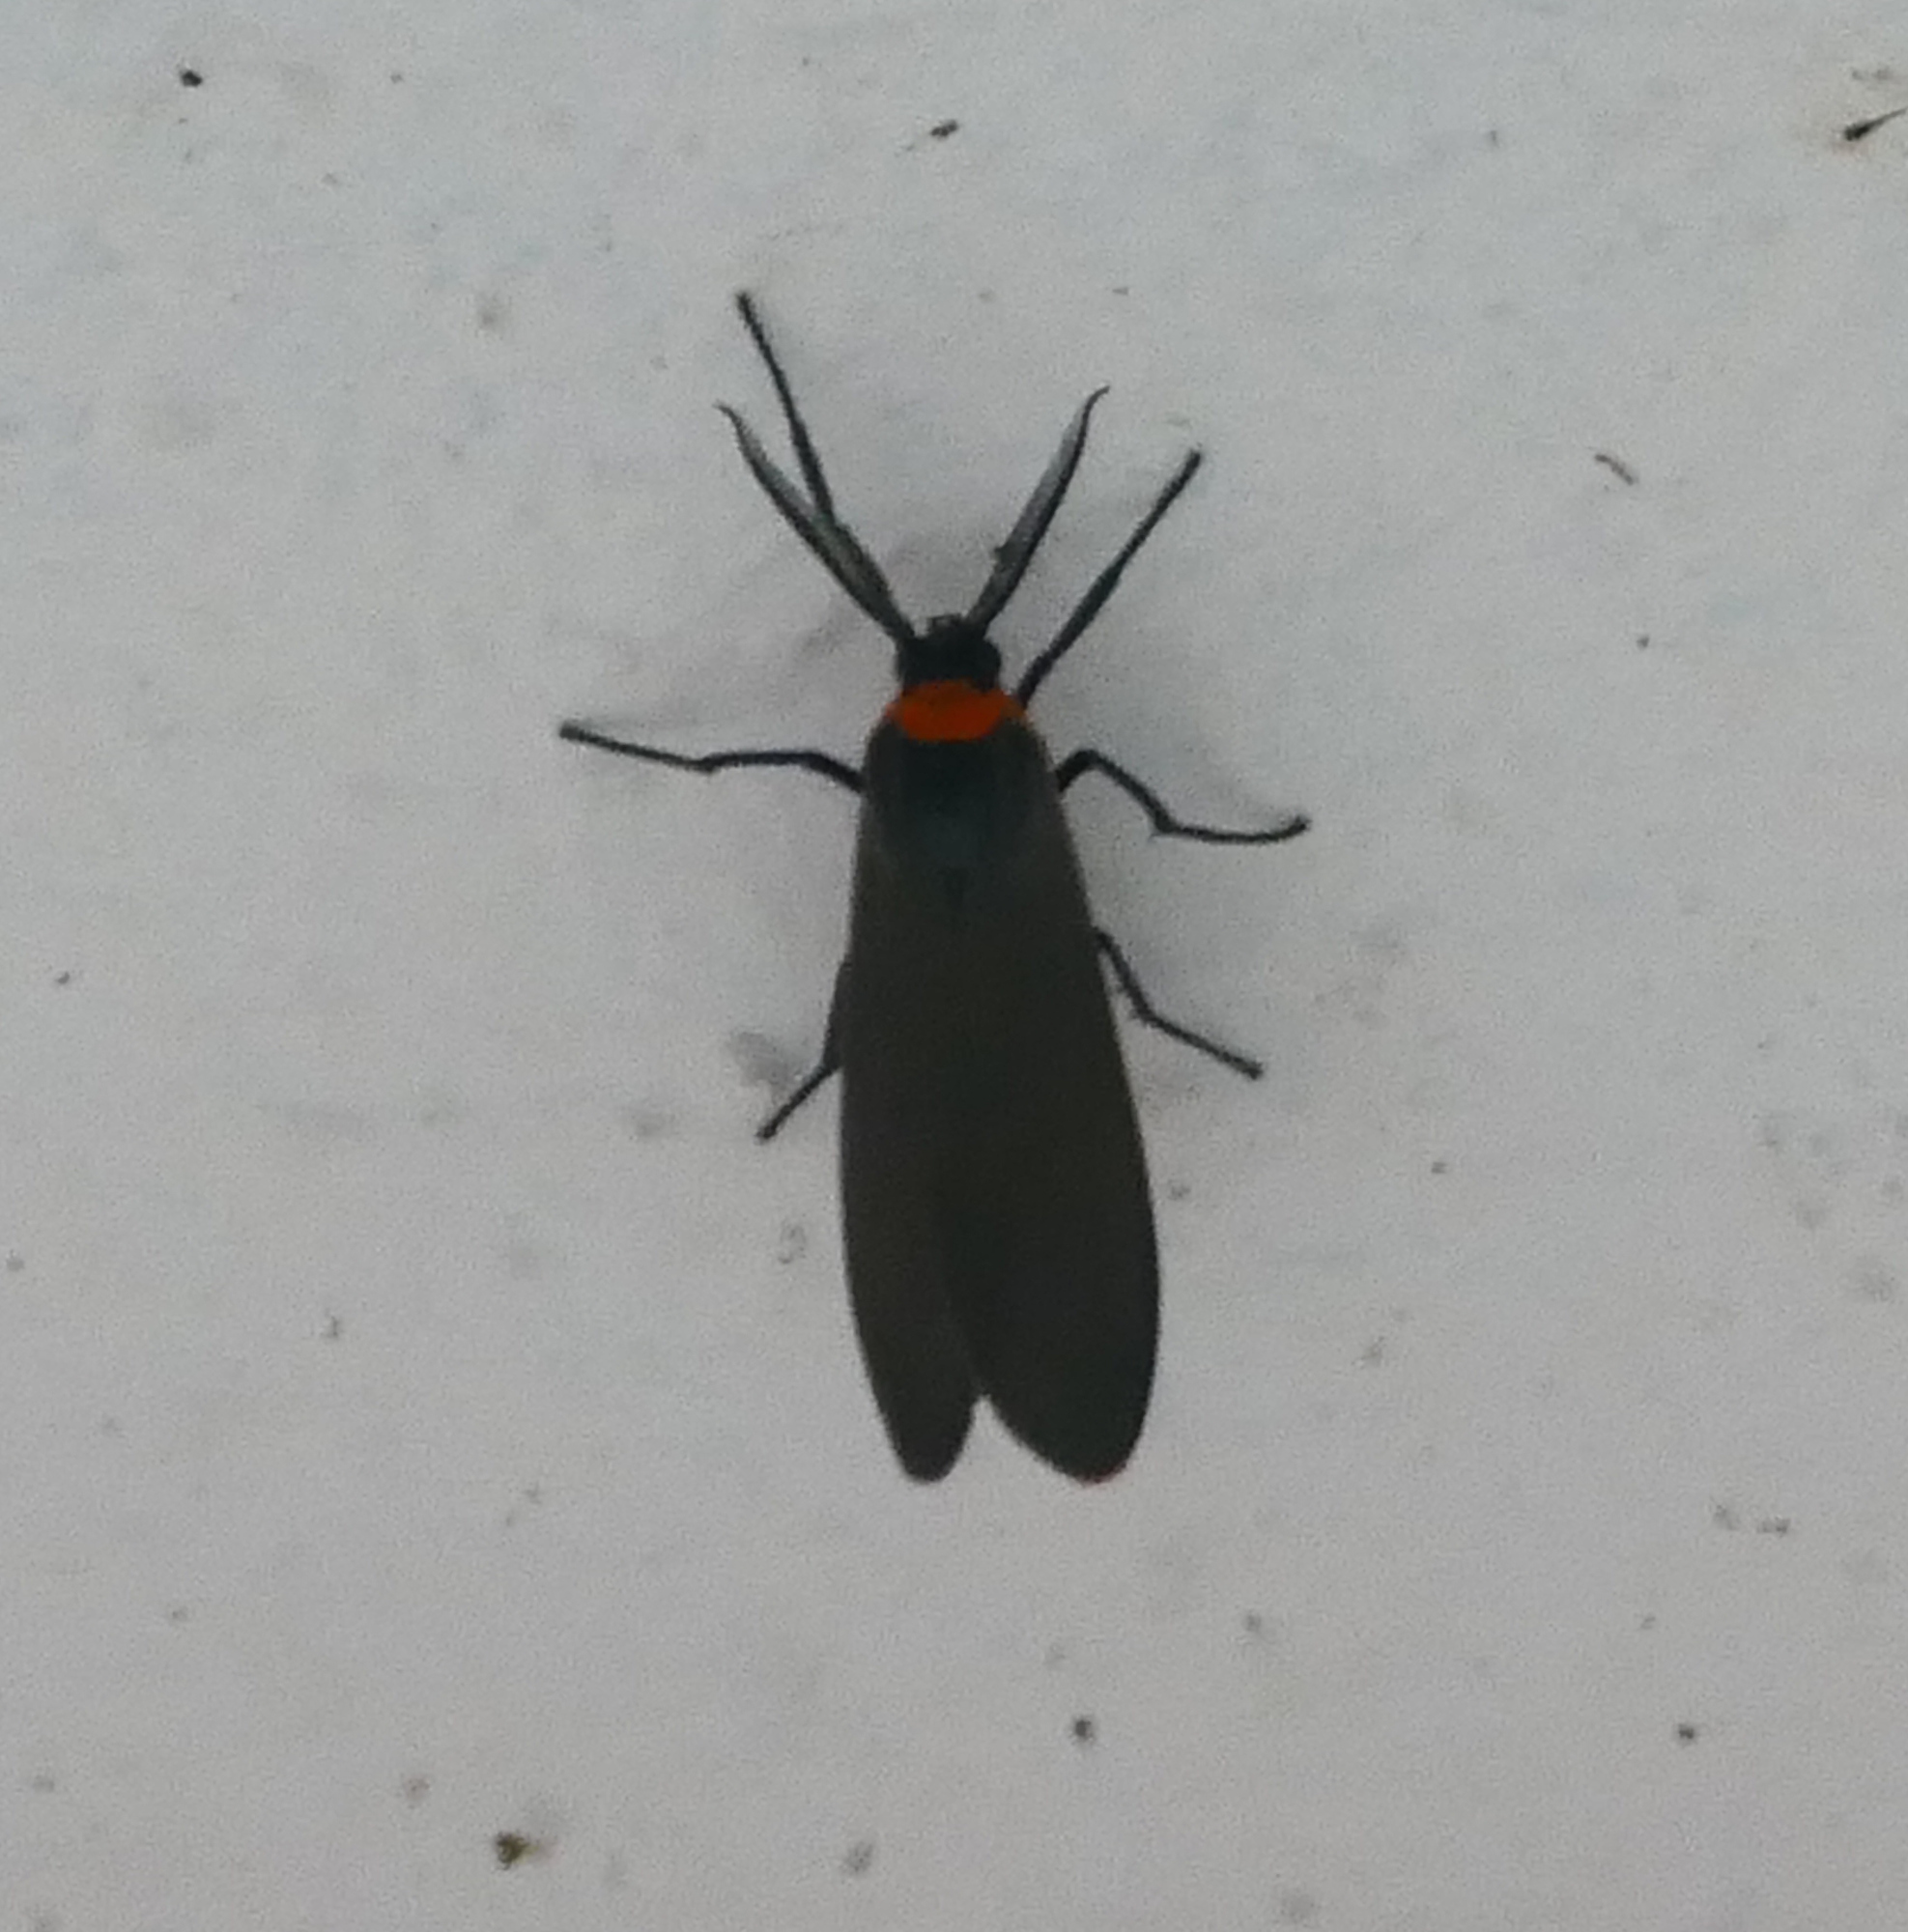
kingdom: Animalia
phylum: Arthropoda
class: Insecta
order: Lepidoptera
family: Erebidae
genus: Cisseps
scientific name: Cisseps fulvicollis
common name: Yellow-collared scape moth
